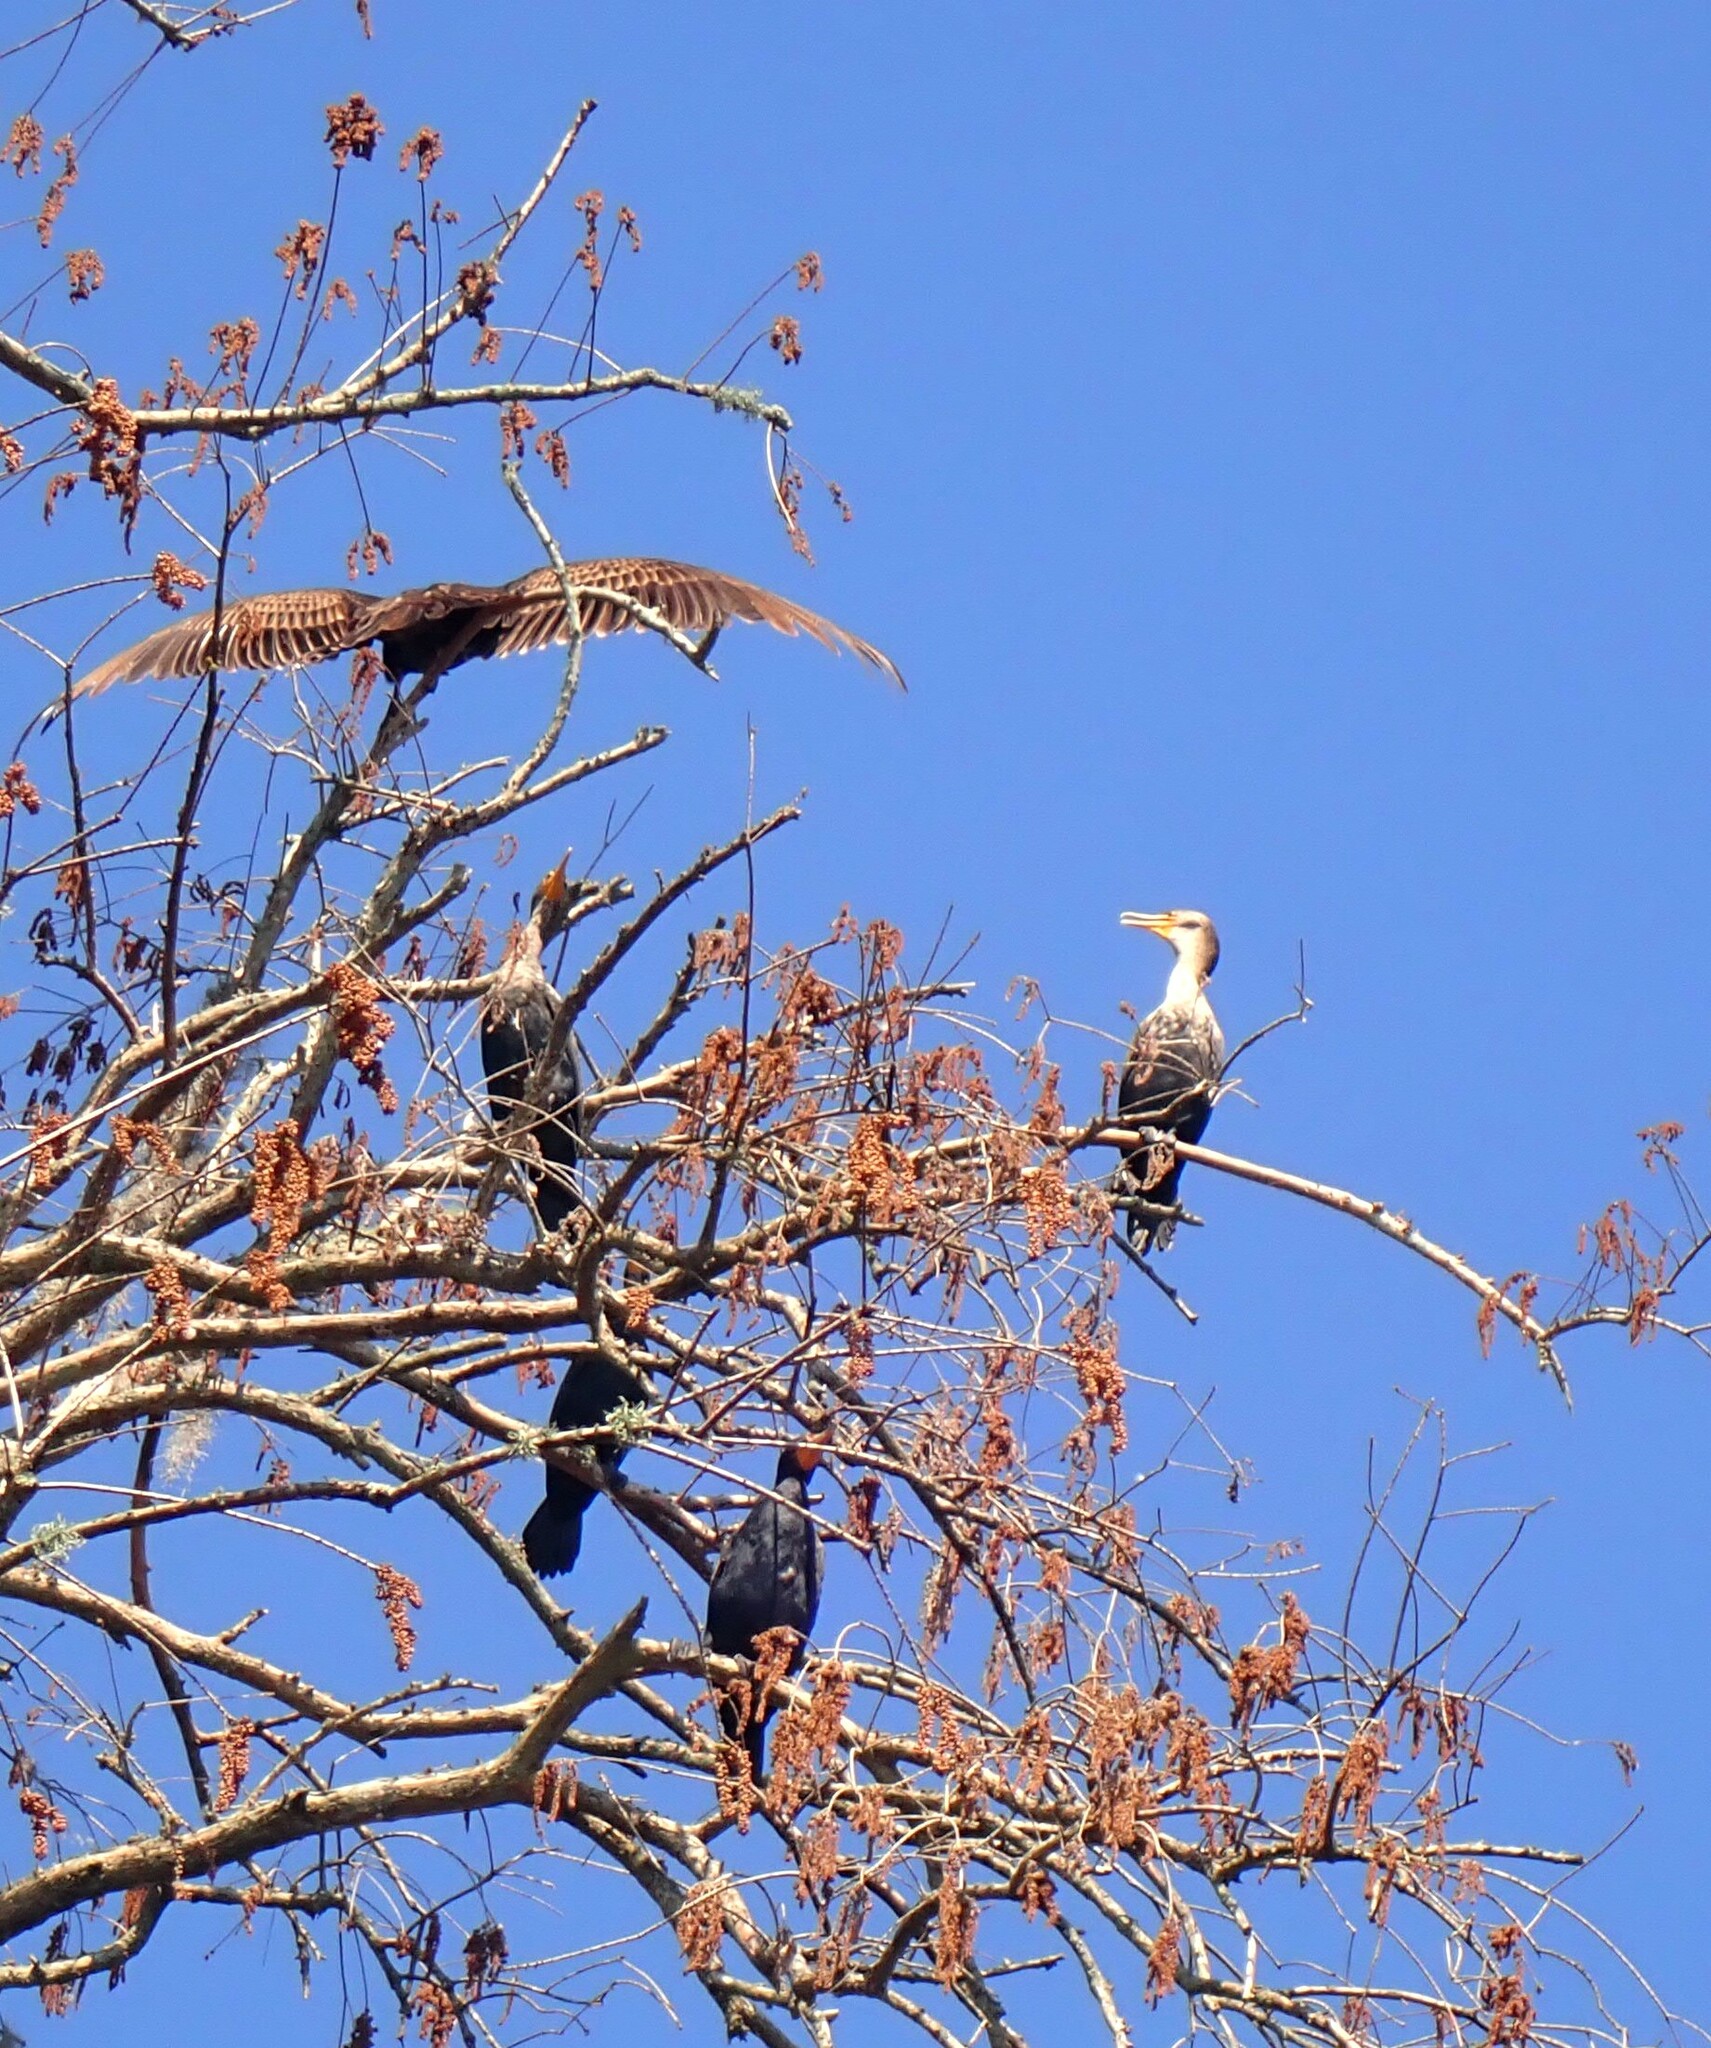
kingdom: Animalia
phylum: Chordata
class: Aves
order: Suliformes
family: Phalacrocoracidae
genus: Phalacrocorax
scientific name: Phalacrocorax auritus
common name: Double-crested cormorant
